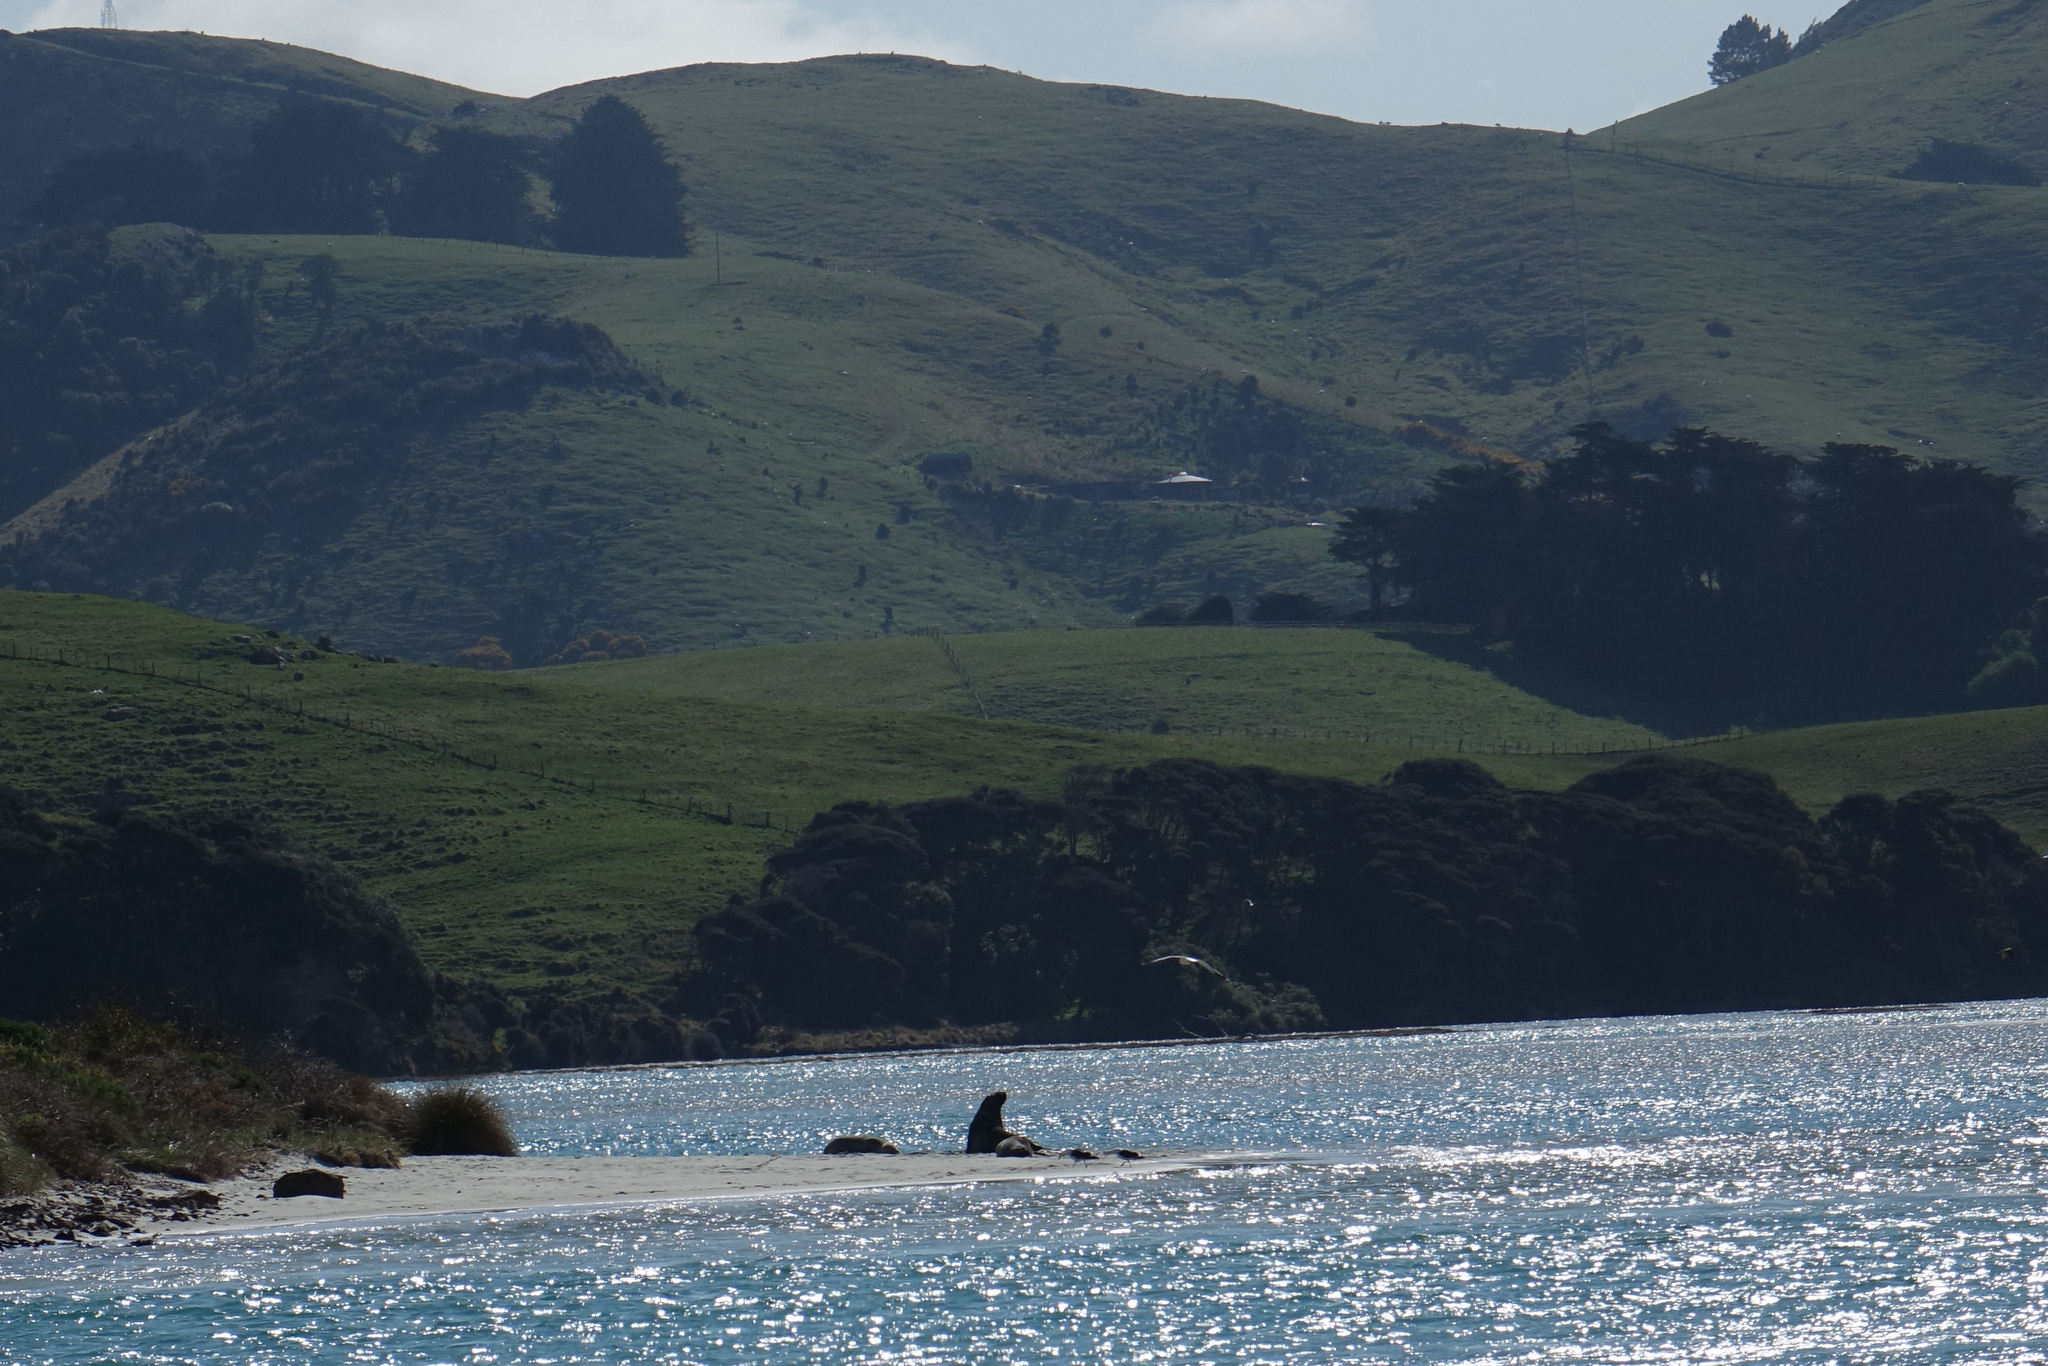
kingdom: Animalia
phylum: Chordata
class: Mammalia
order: Carnivora
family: Otariidae
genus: Phocarctos
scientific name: Phocarctos hookeri
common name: New zealand sea lion
